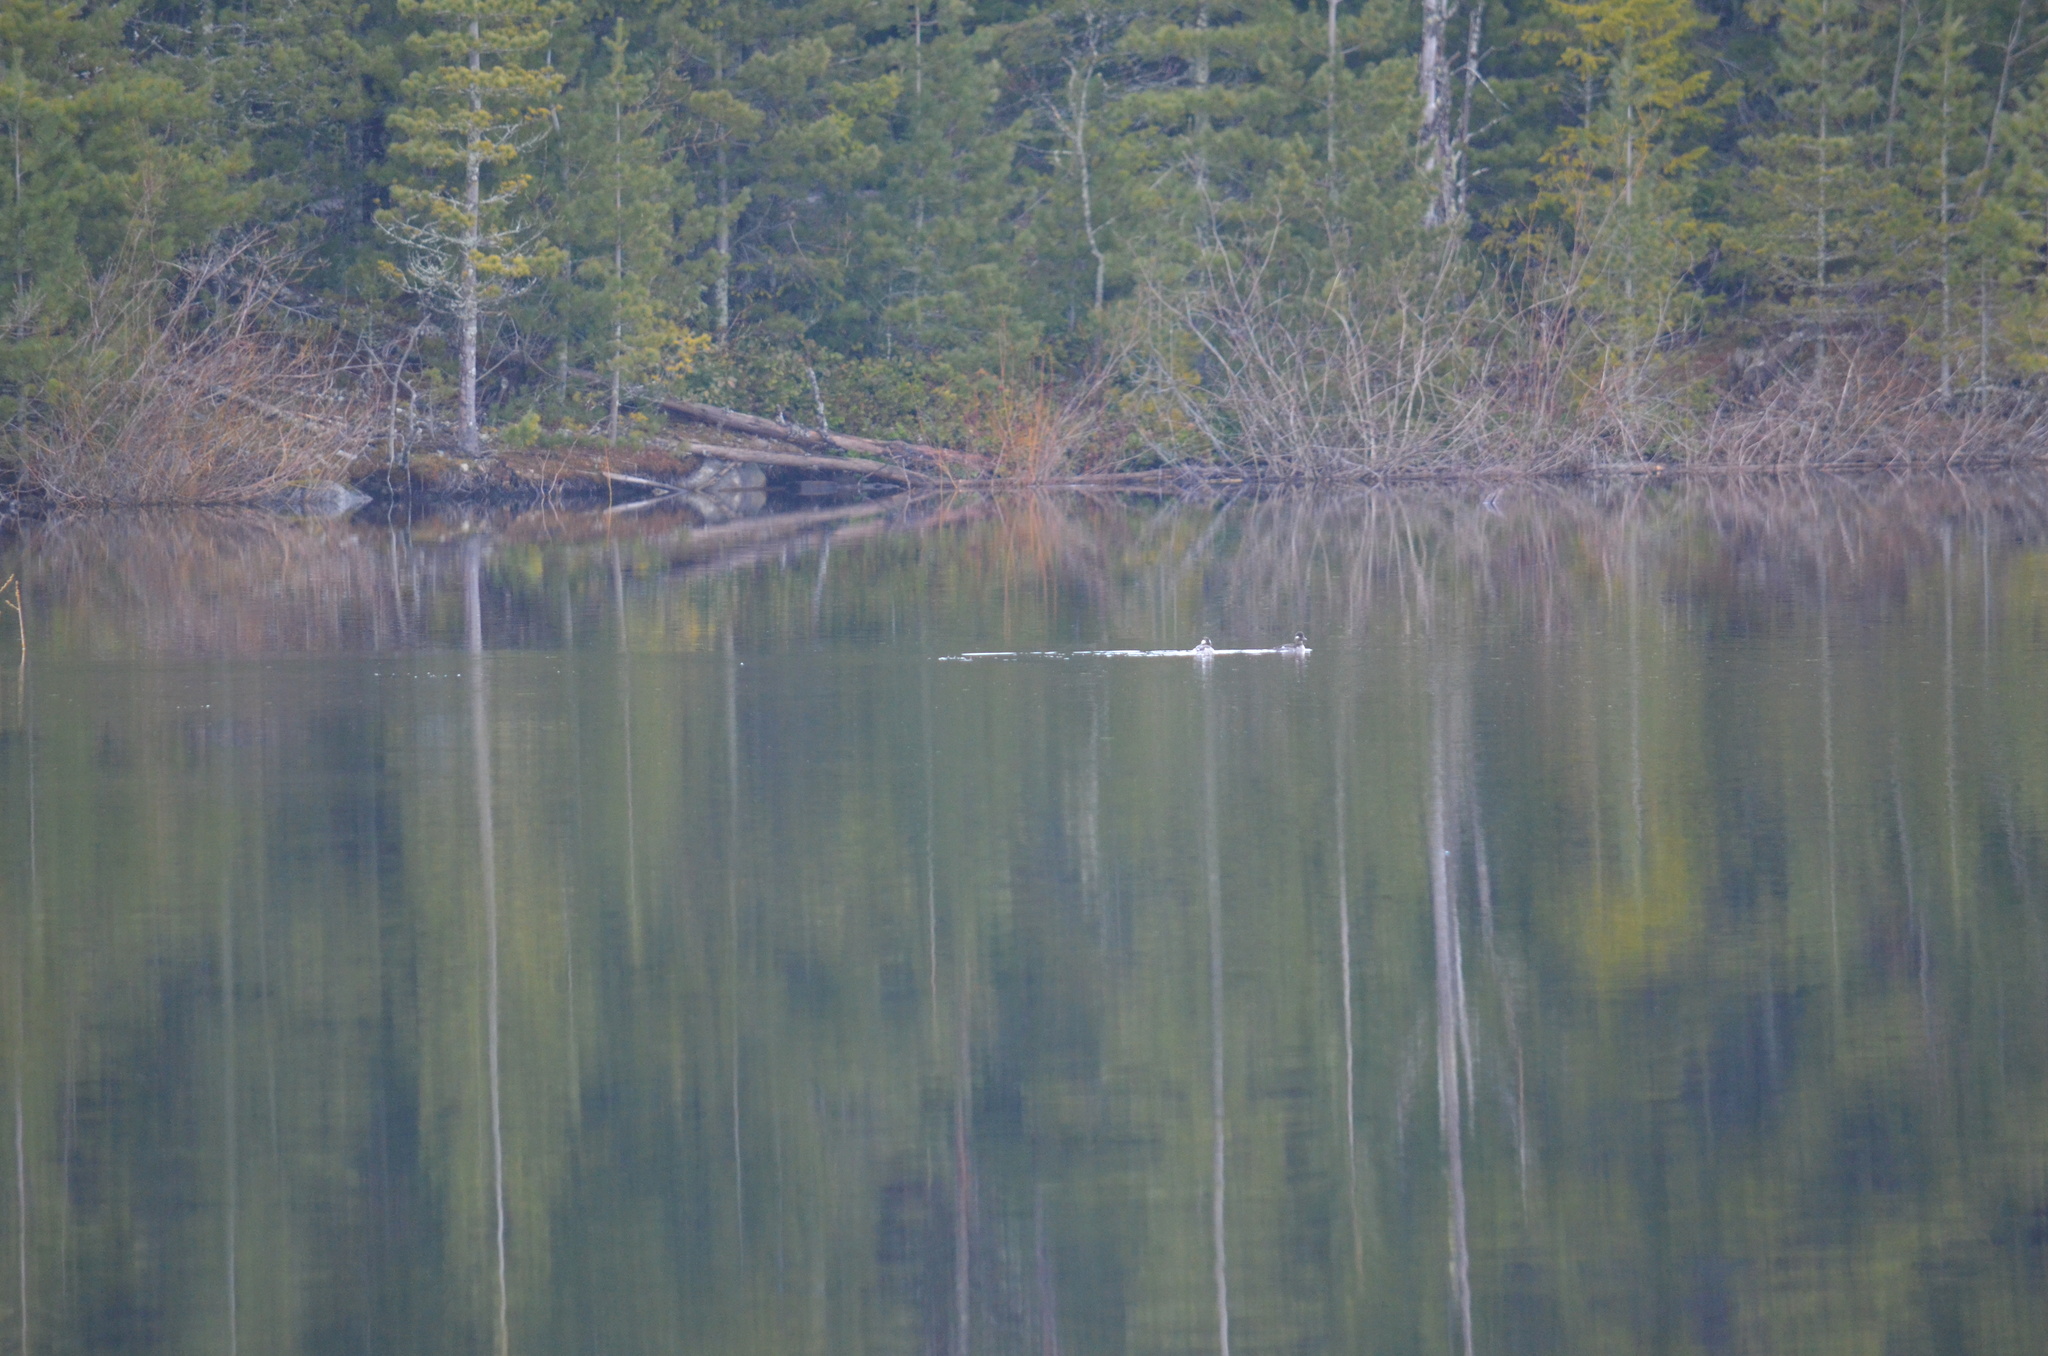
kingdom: Animalia
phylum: Chordata
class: Aves
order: Anseriformes
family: Anatidae
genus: Bucephala
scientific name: Bucephala albeola
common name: Bufflehead
